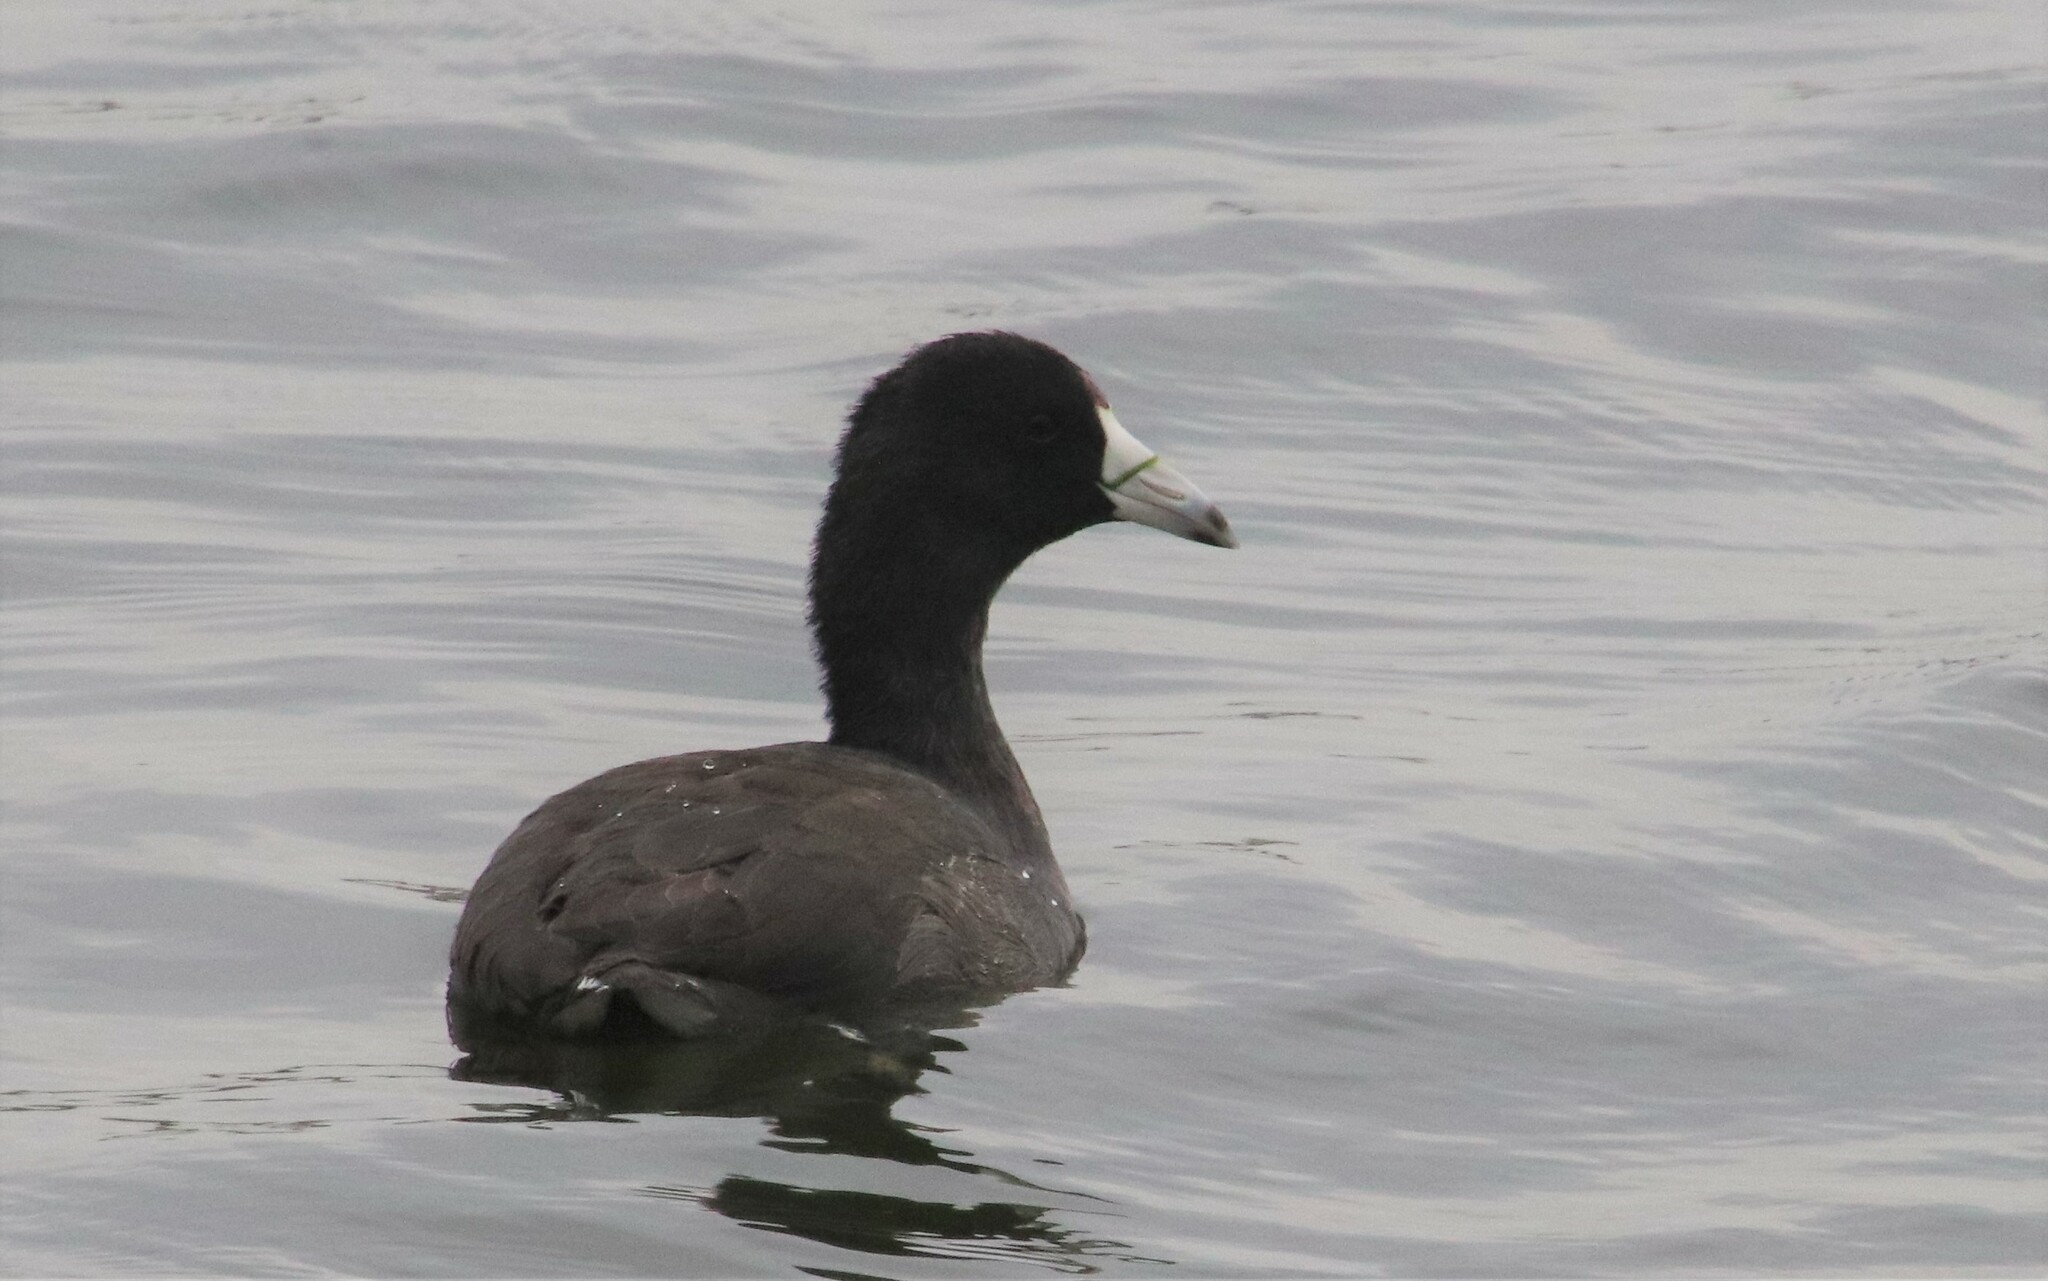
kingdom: Animalia
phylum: Chordata
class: Aves
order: Gruiformes
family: Rallidae
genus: Fulica
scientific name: Fulica americana
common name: American coot
